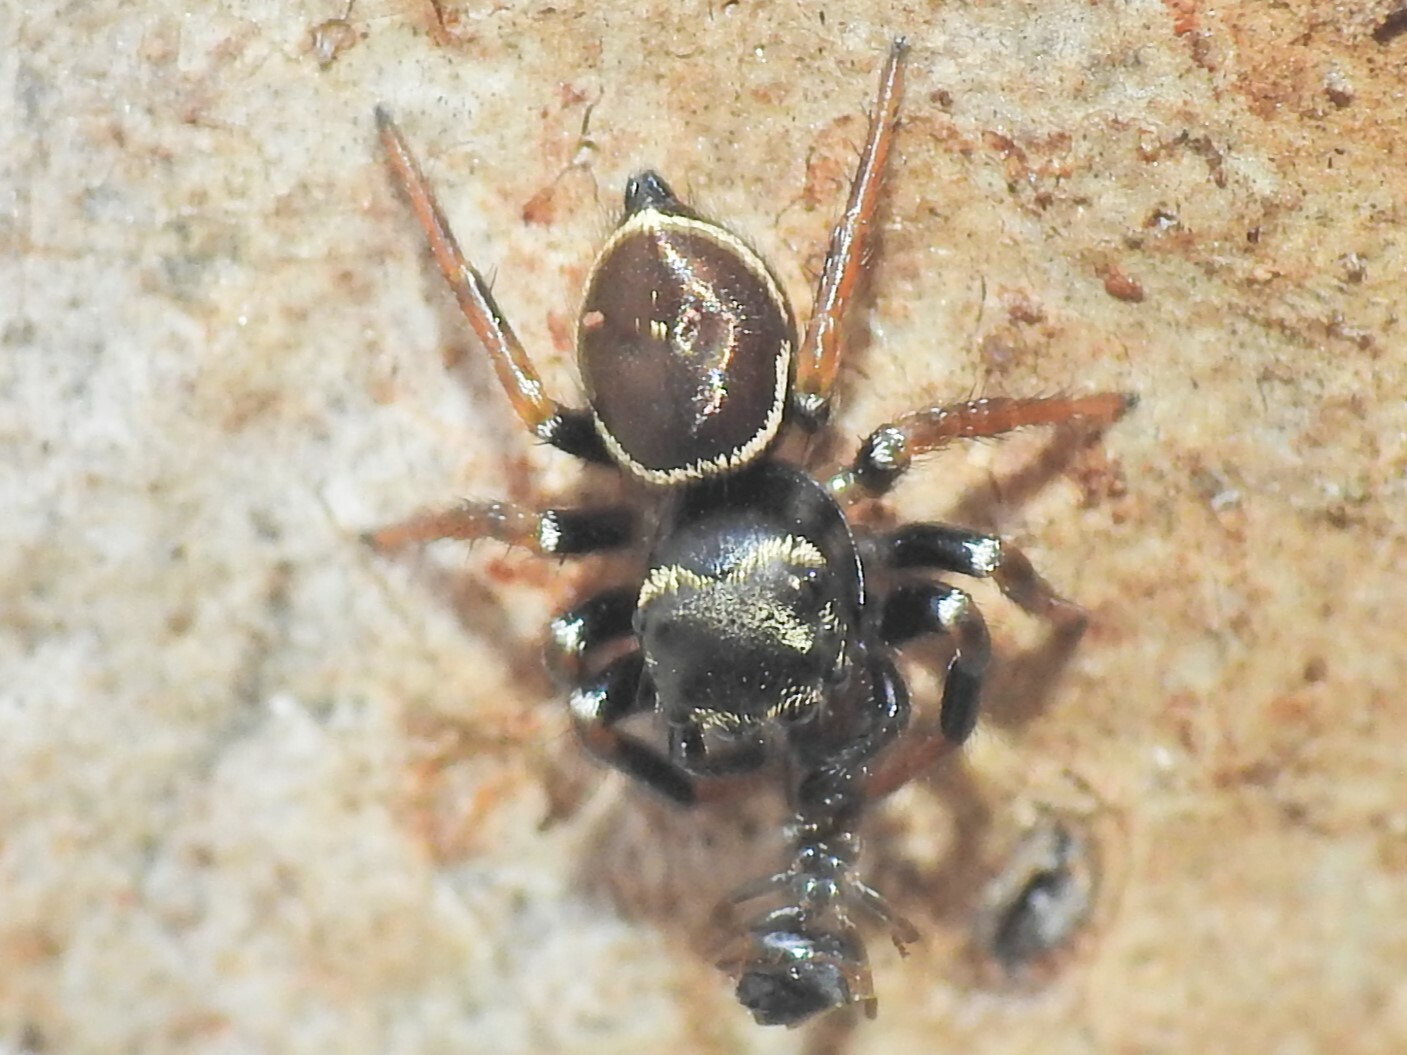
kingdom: Animalia
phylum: Arthropoda
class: Arachnida
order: Araneae
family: Salticidae
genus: Zenodorus
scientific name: Zenodorus orbiculatus
